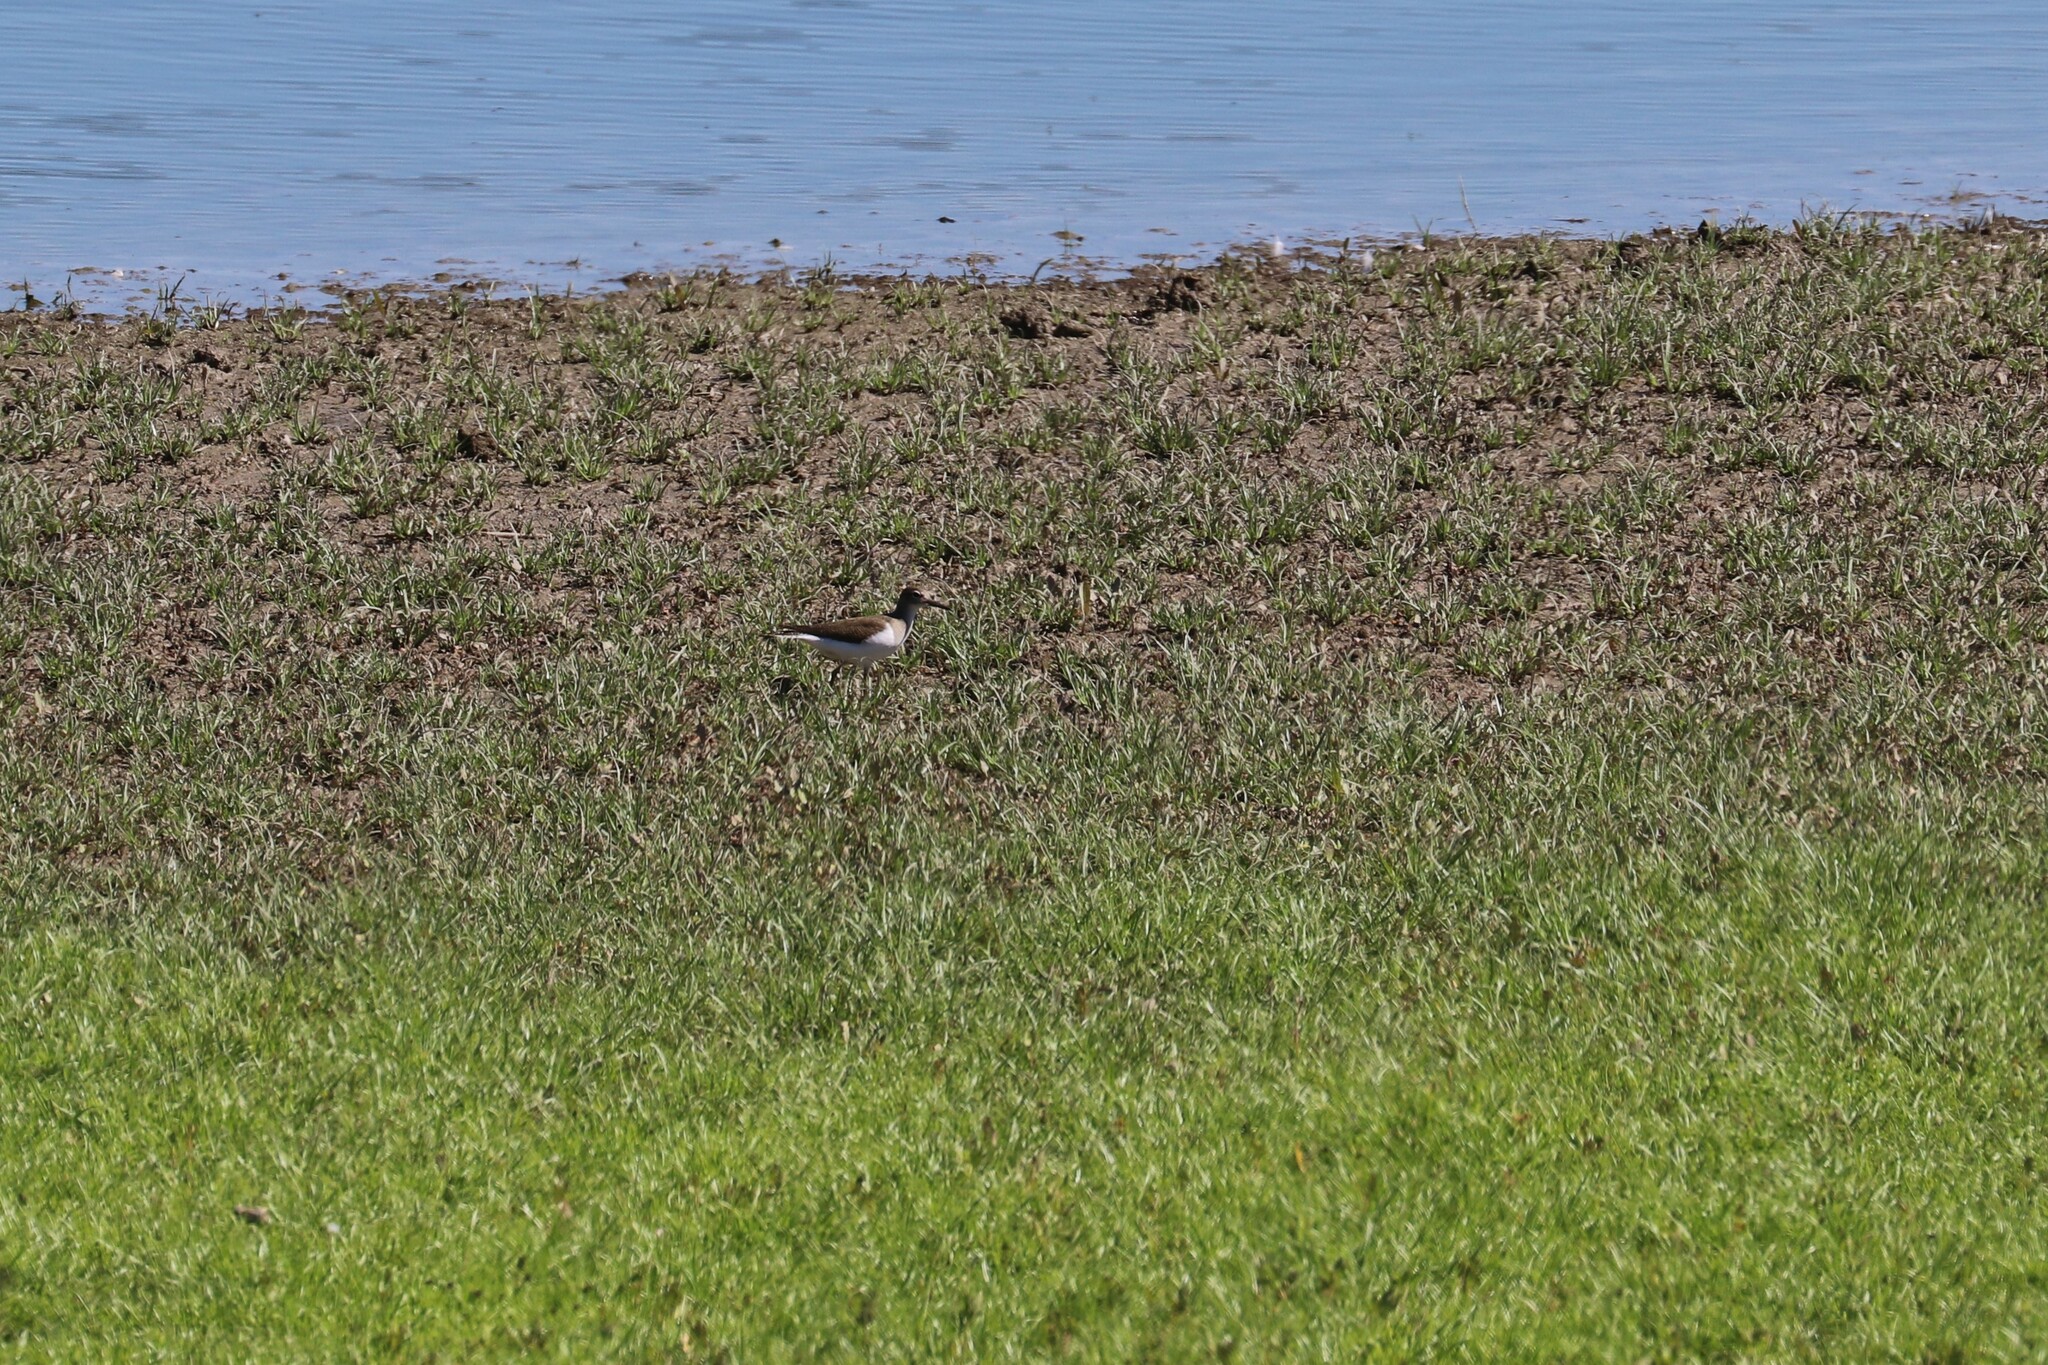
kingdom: Animalia
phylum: Chordata
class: Aves
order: Charadriiformes
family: Scolopacidae
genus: Actitis
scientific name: Actitis hypoleucos
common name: Common sandpiper
